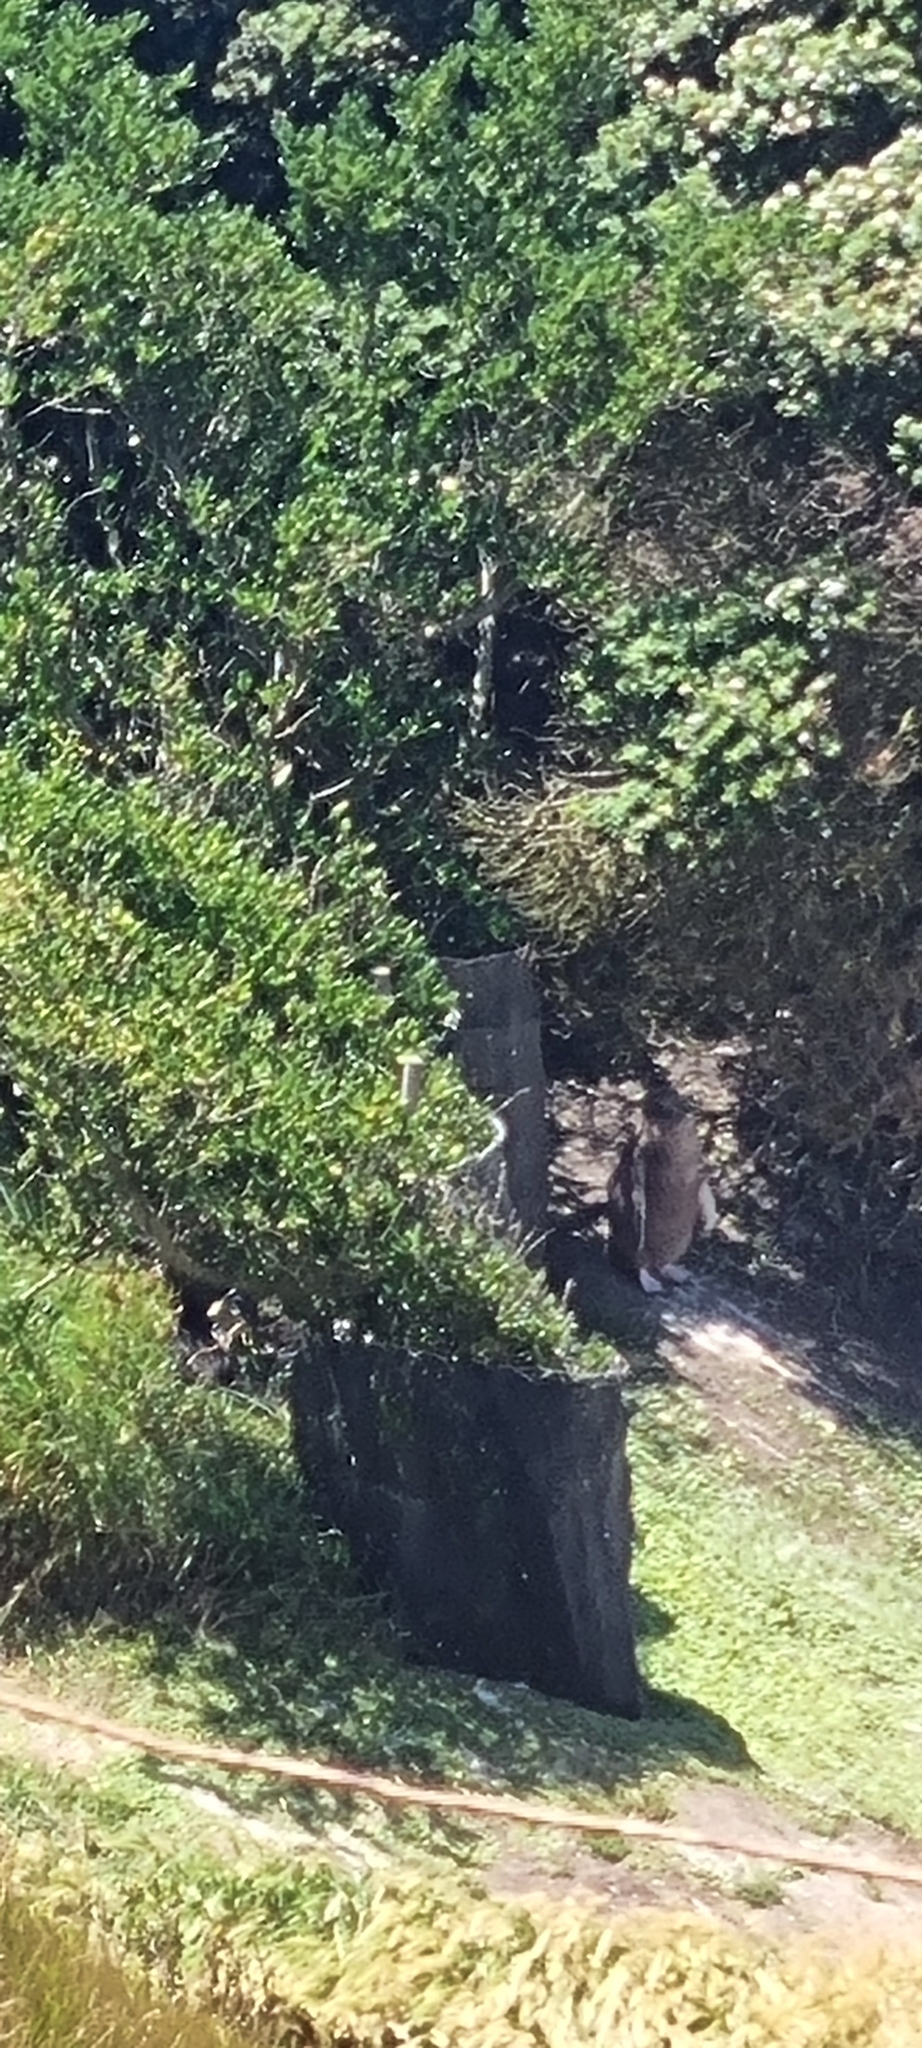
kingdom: Animalia
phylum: Chordata
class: Aves
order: Sphenisciformes
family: Spheniscidae
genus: Megadyptes
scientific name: Megadyptes antipodes
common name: Yellow-eyed penguin
